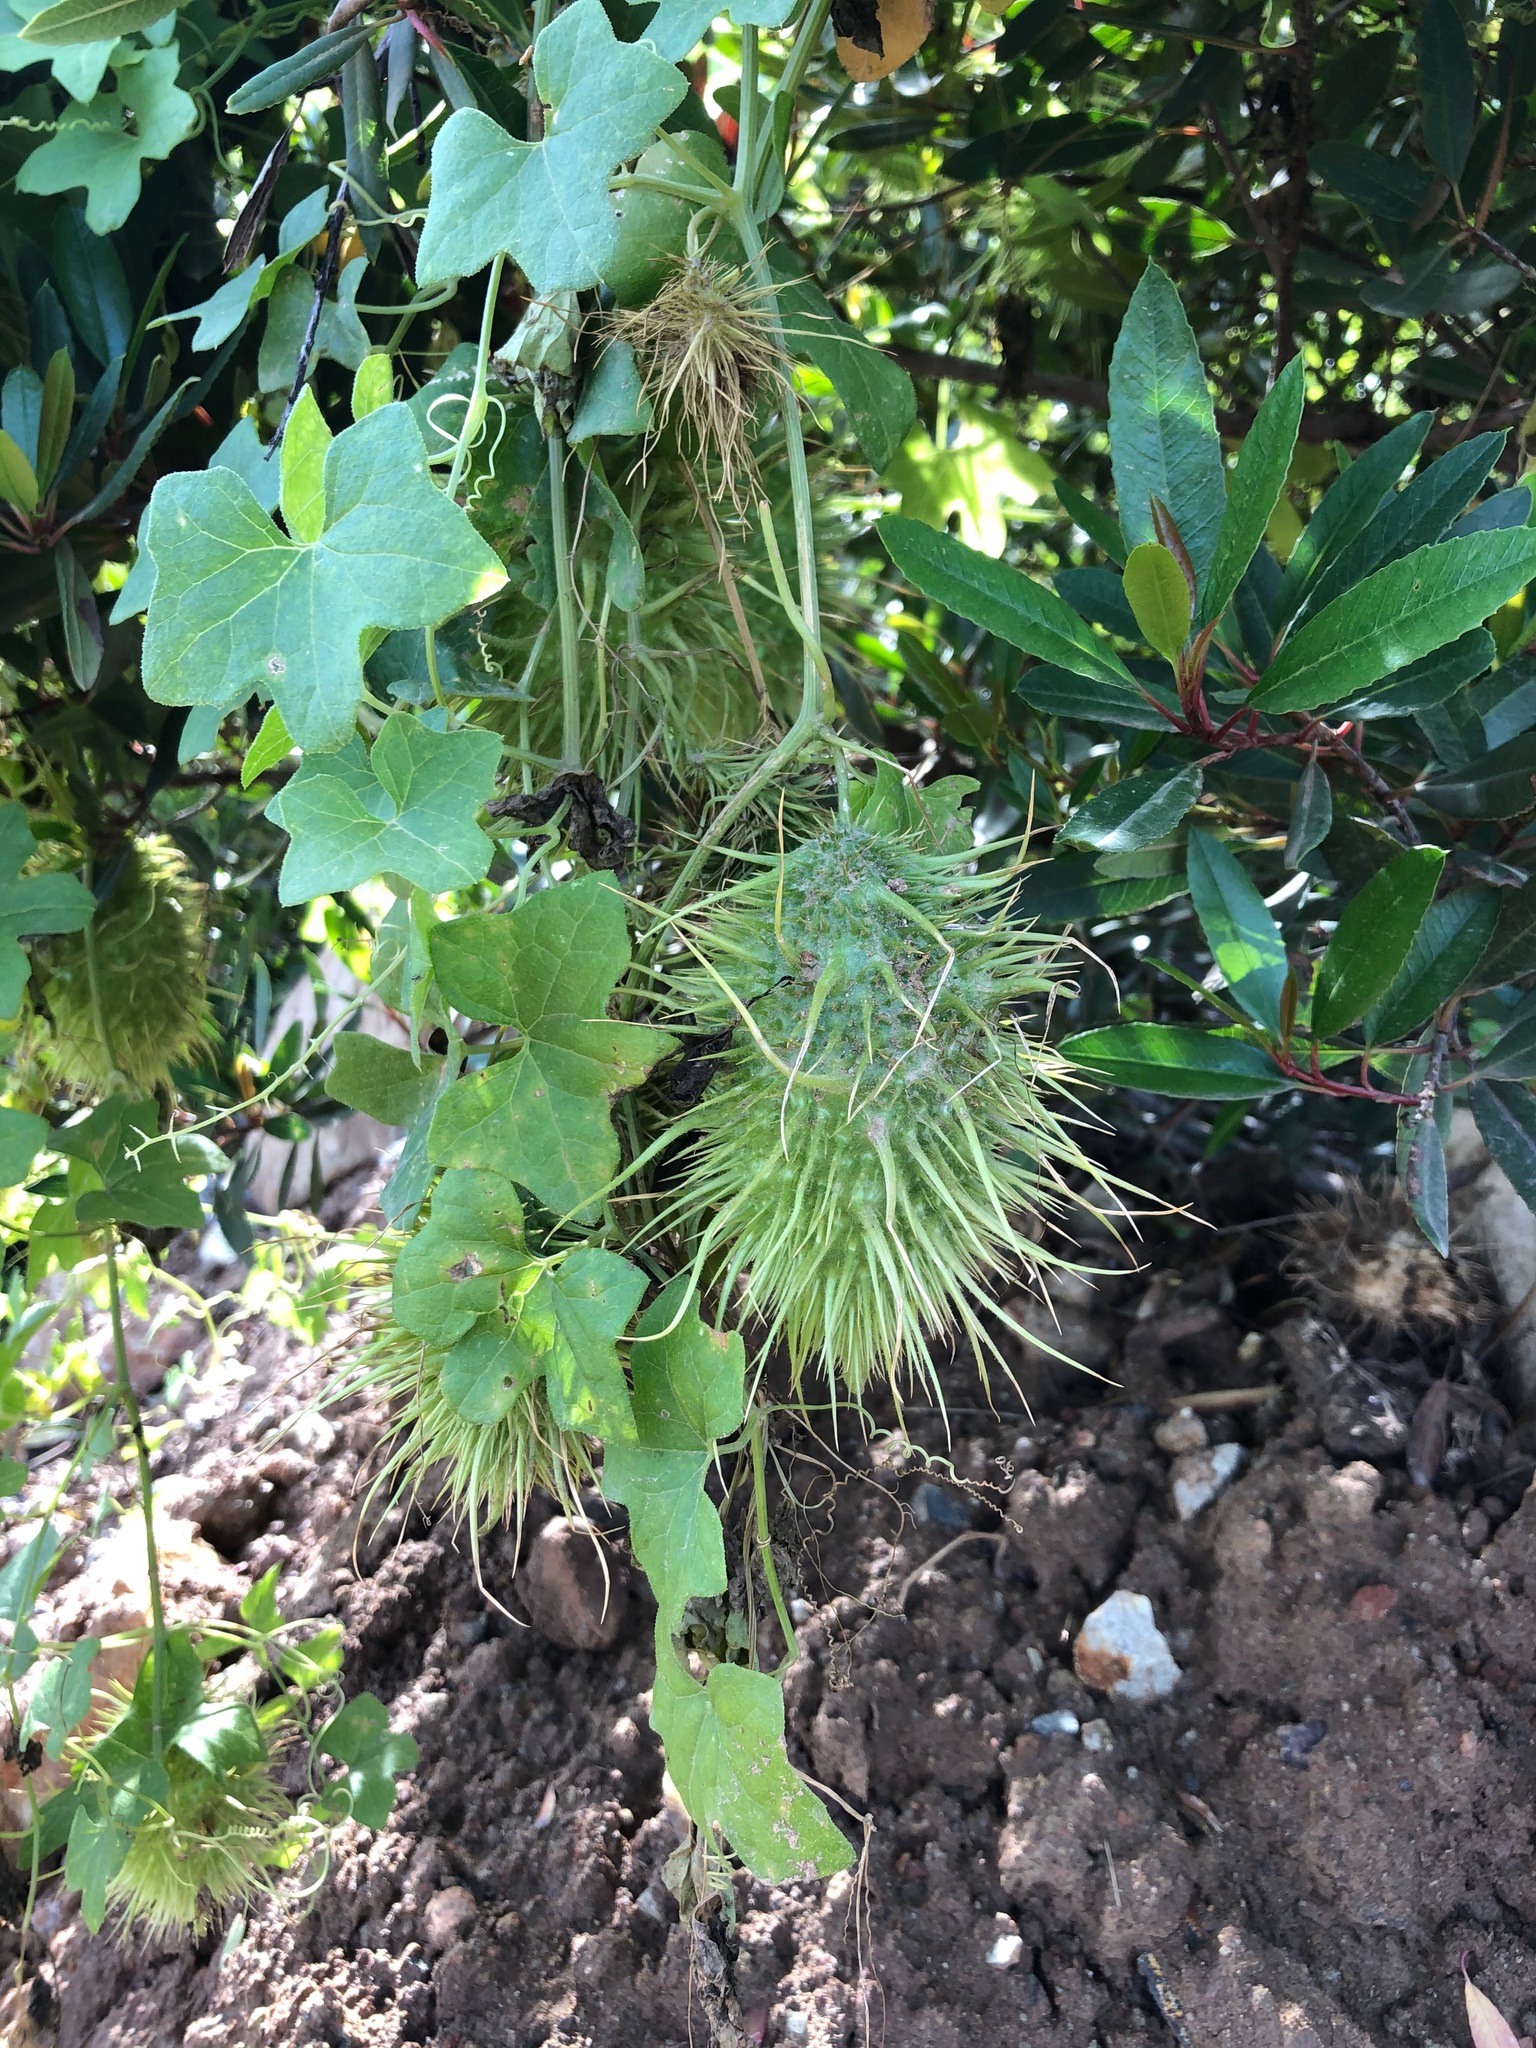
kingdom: Plantae
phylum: Tracheophyta
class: Magnoliopsida
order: Cucurbitales
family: Cucurbitaceae
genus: Marah
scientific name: Marah macrocarpa
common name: Cucamonga manroot
